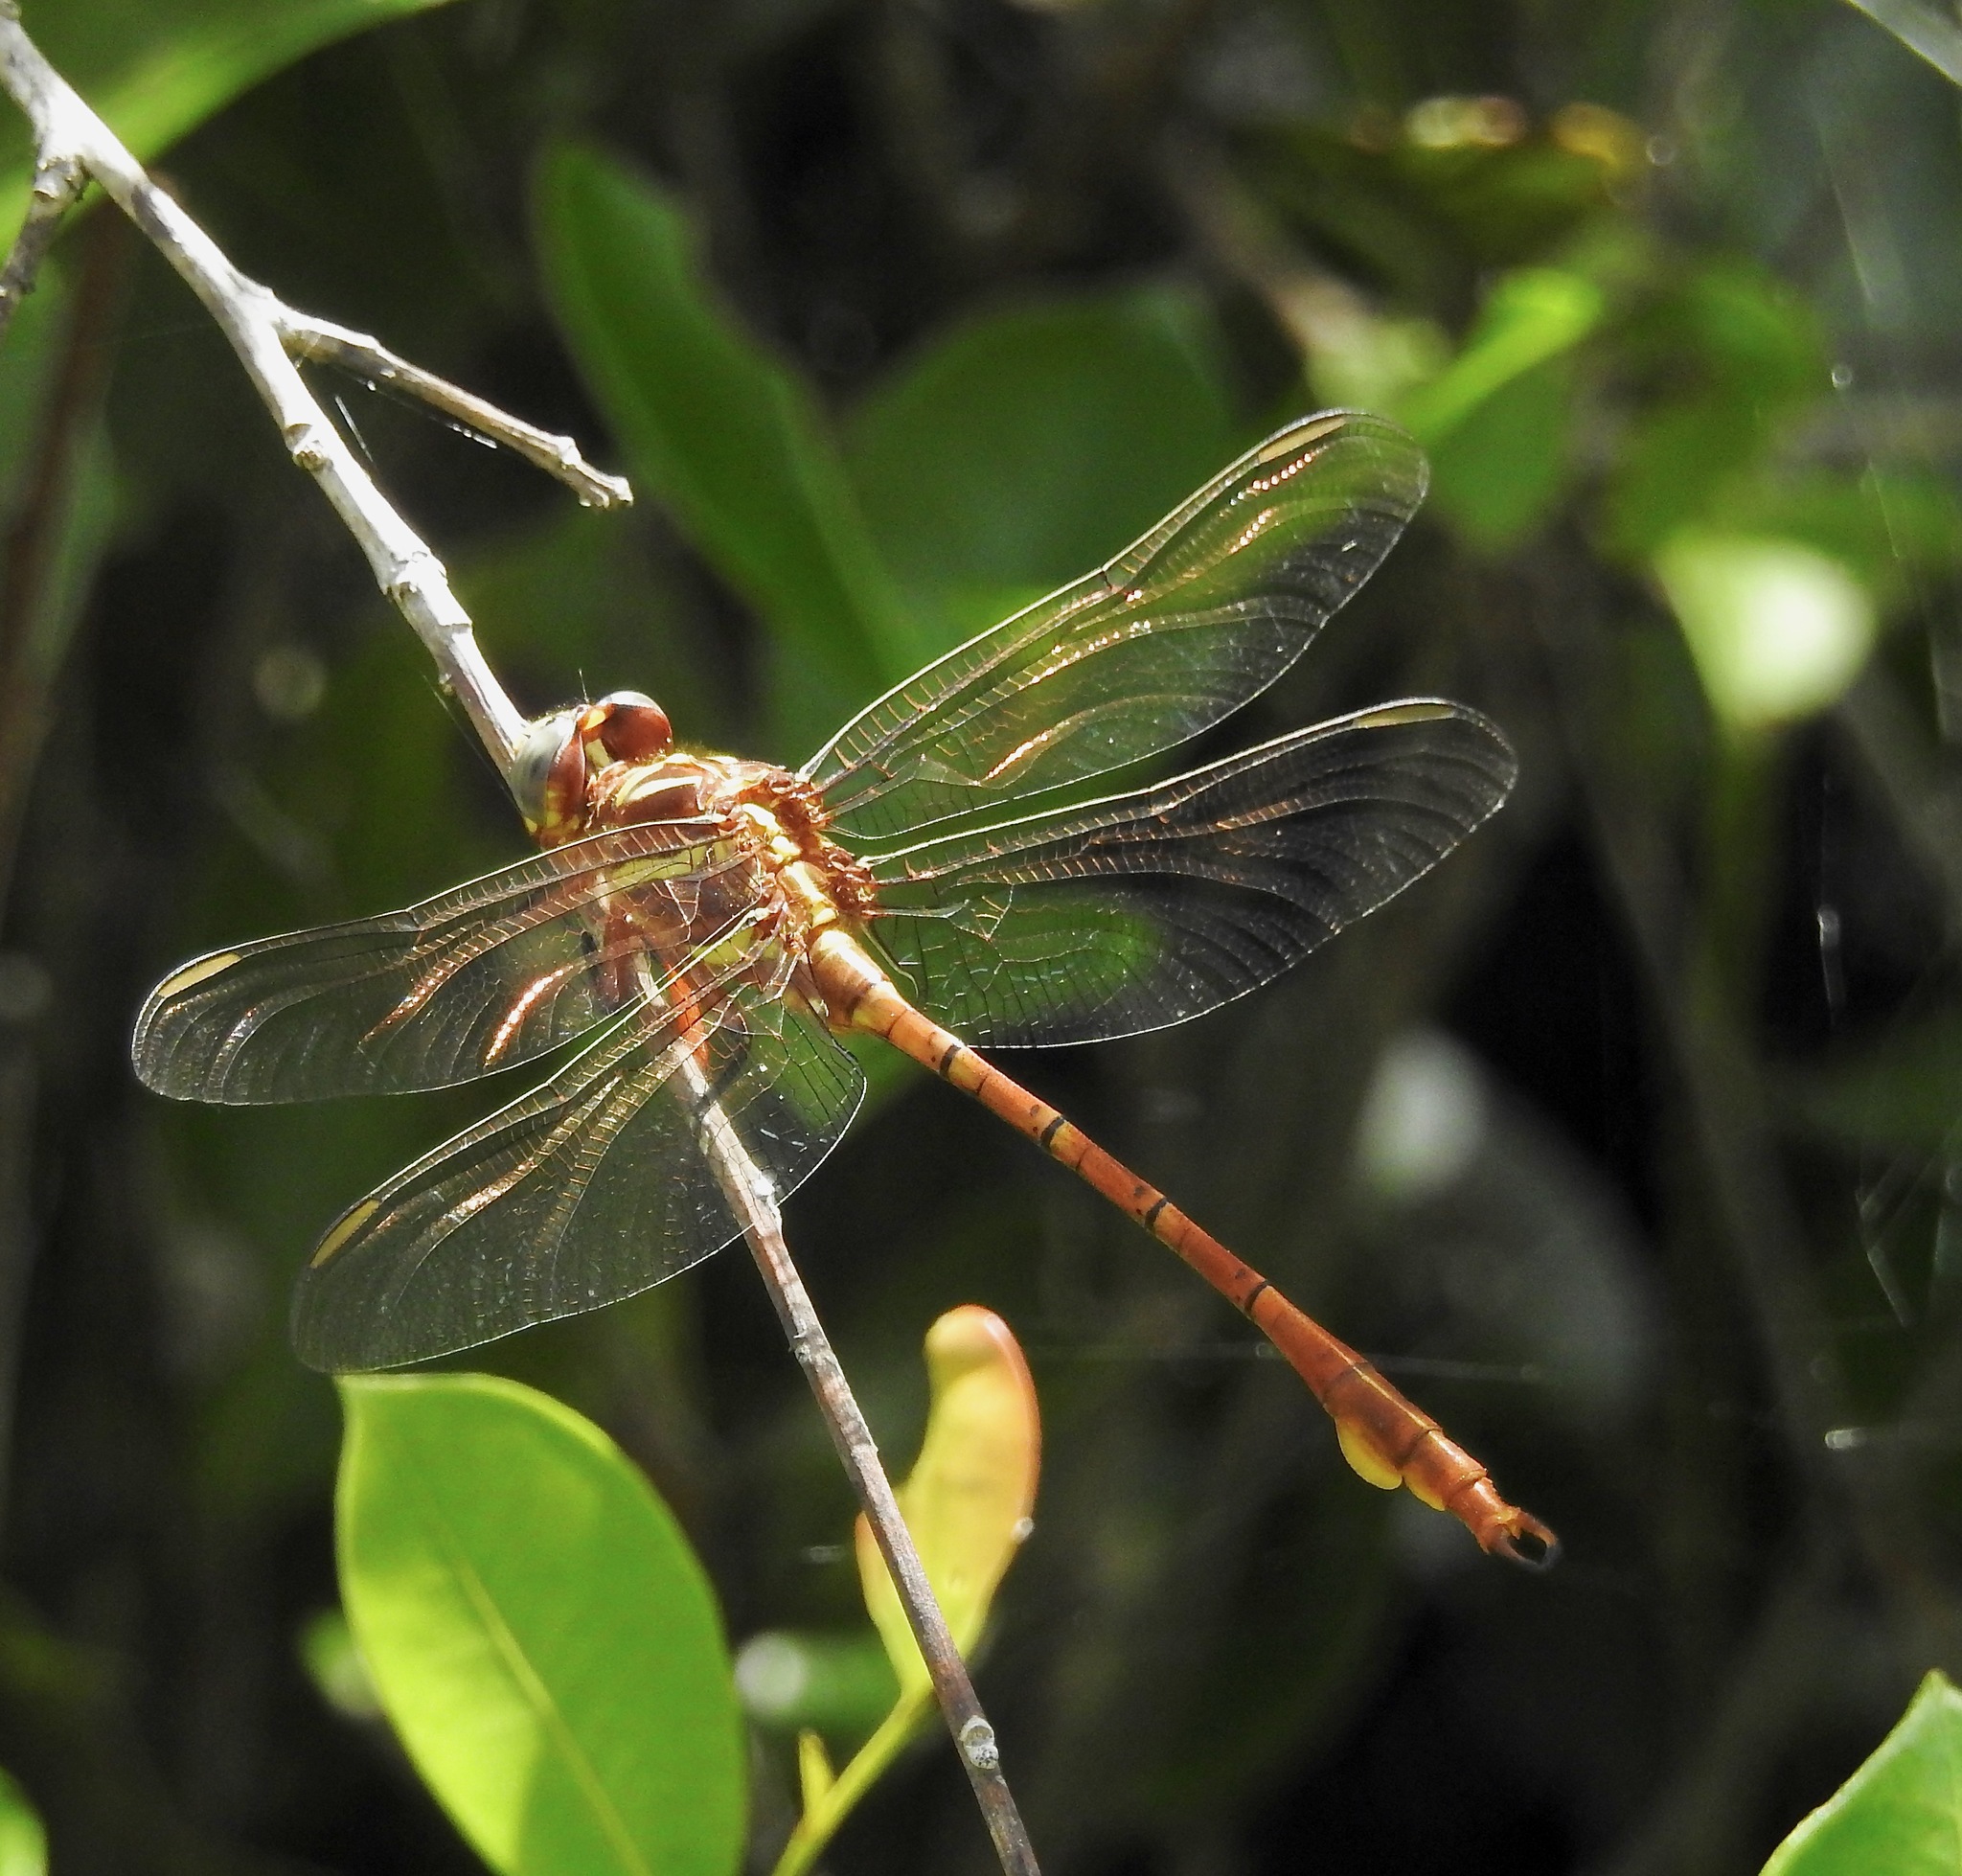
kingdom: Animalia
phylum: Arthropoda
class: Insecta
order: Odonata
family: Gomphidae
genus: Aphylla
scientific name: Aphylla williamsoni
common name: Two-striped forceptail
